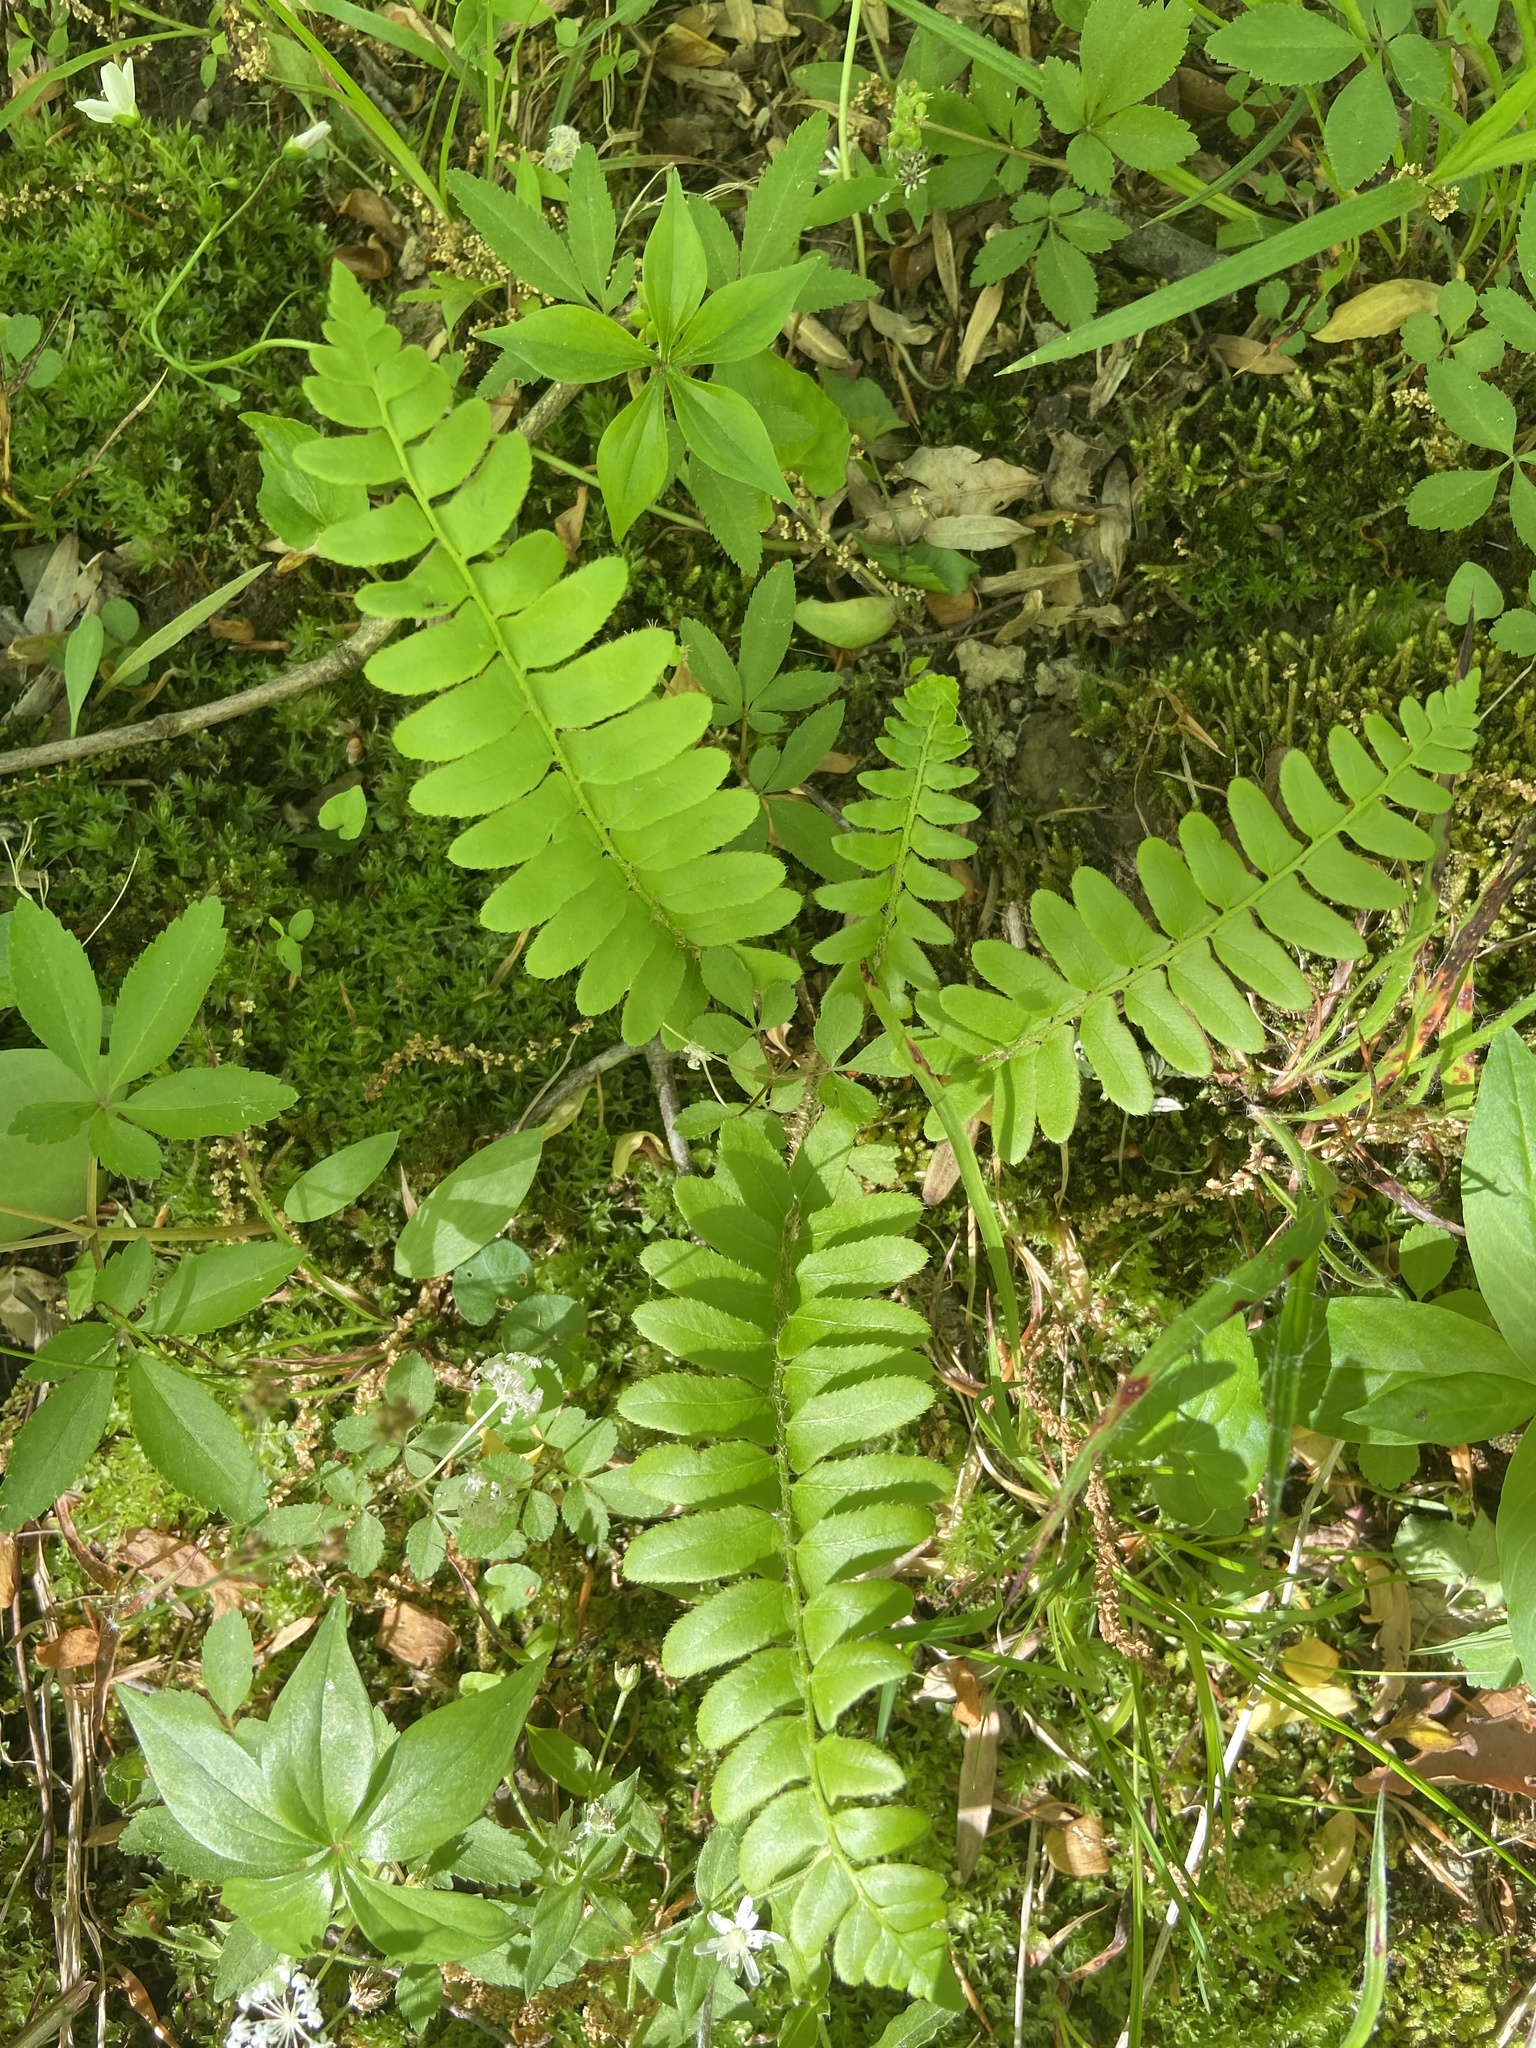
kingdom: Plantae
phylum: Tracheophyta
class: Polypodiopsida
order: Polypodiales
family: Dryopteridaceae
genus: Polystichum
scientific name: Polystichum acrostichoides
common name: Christmas fern
